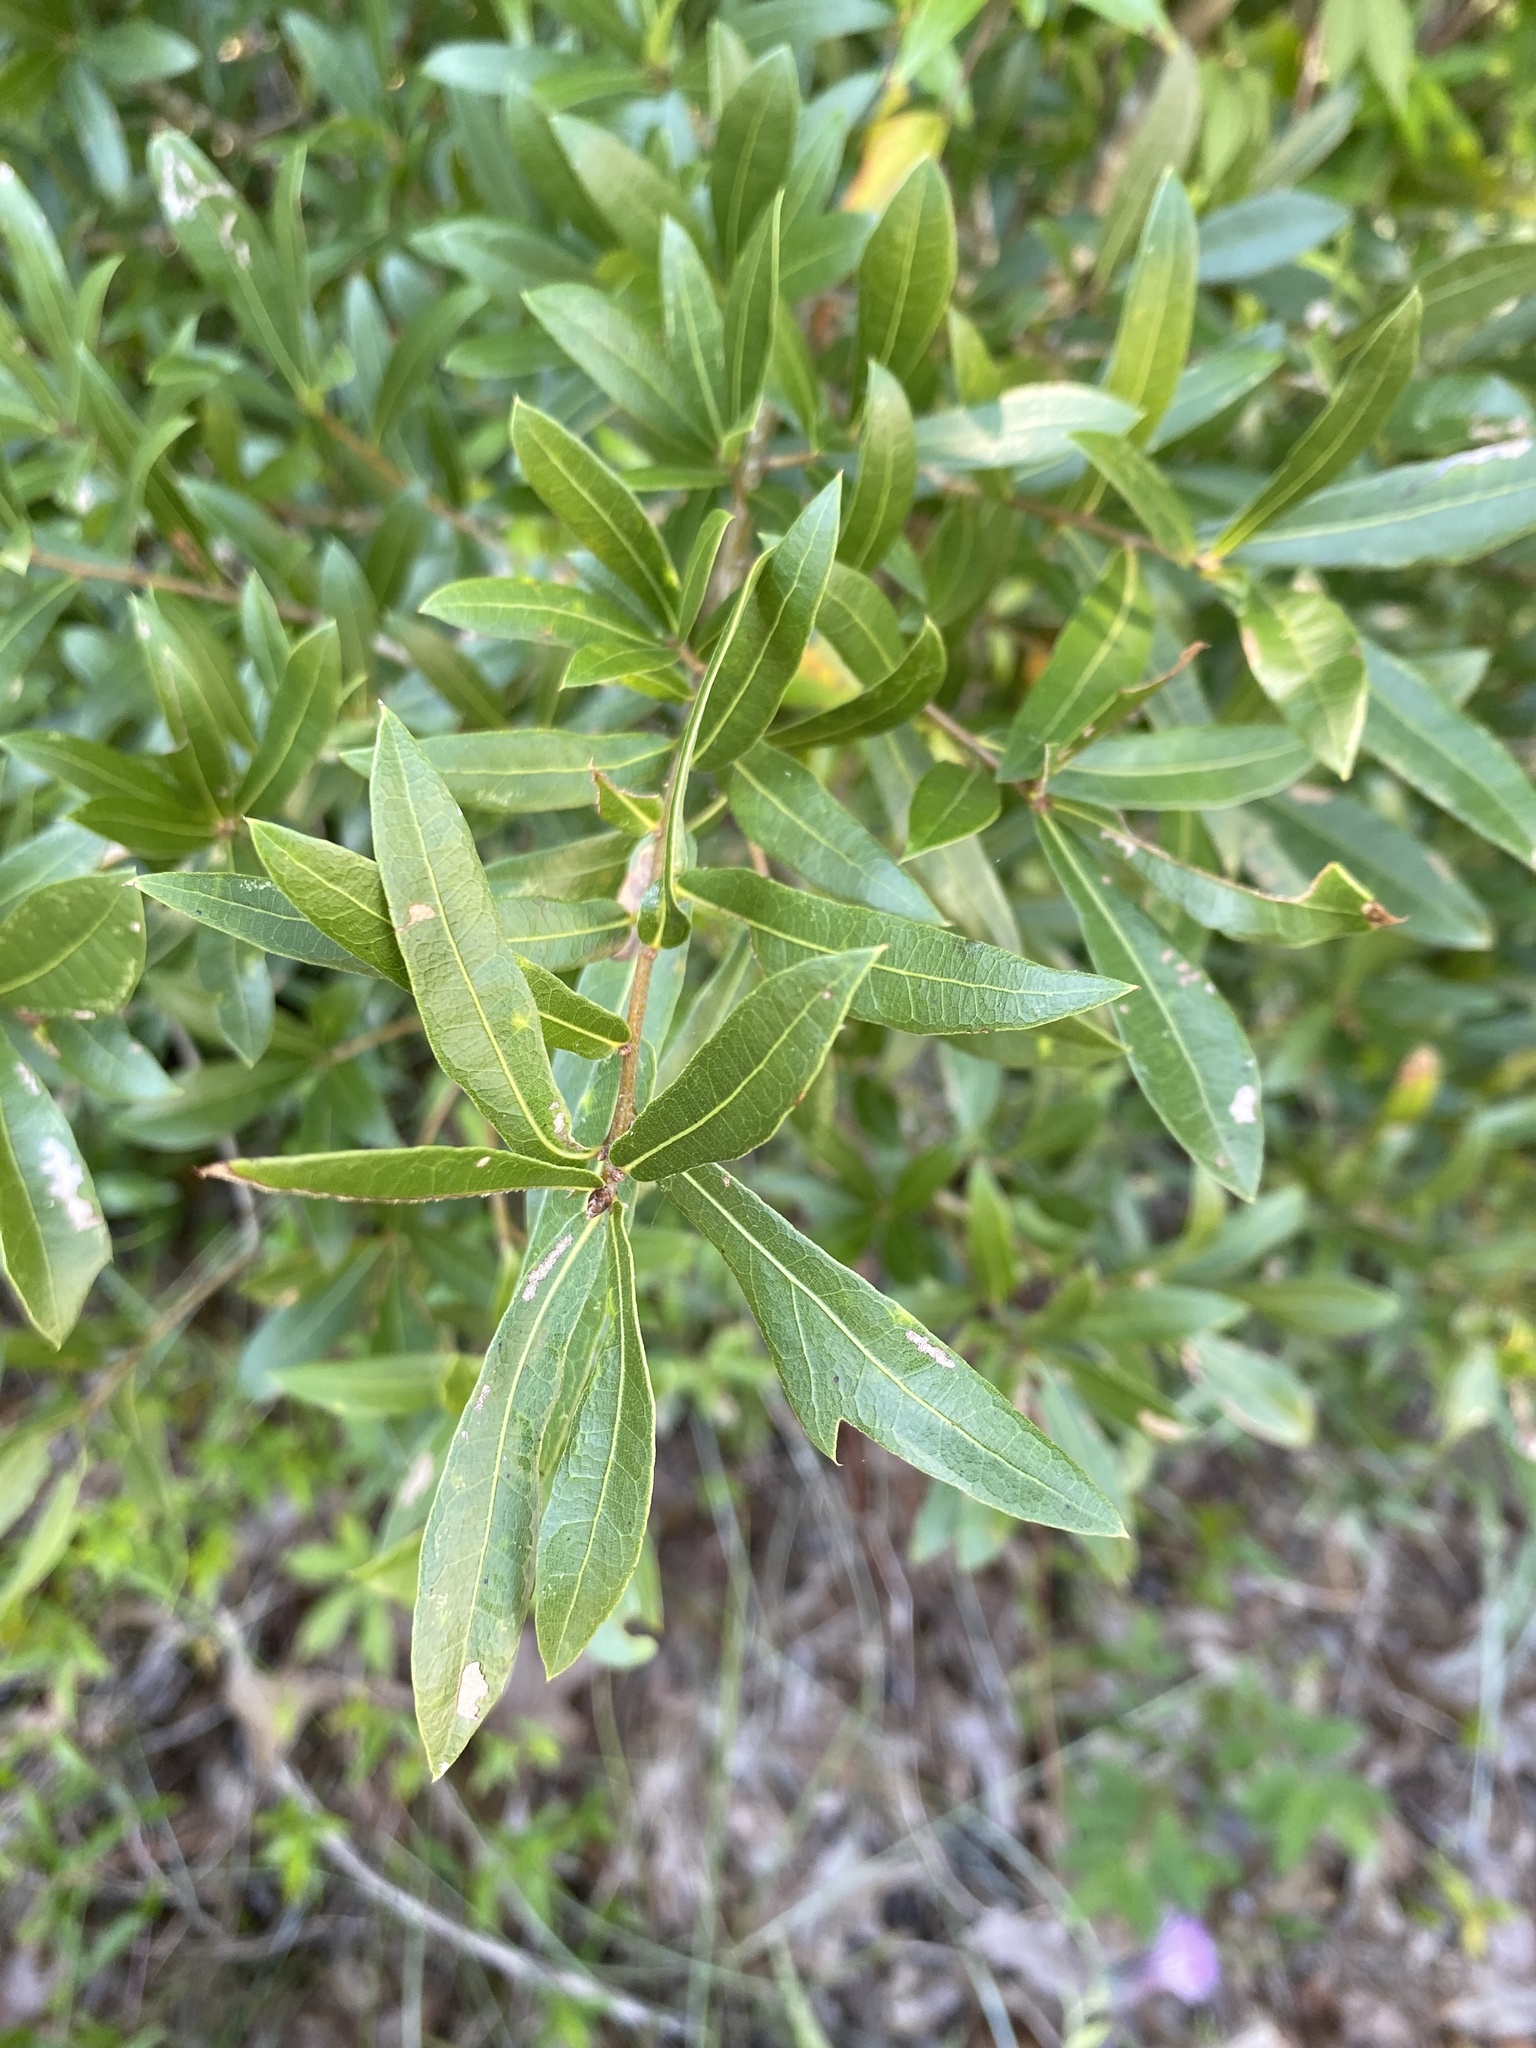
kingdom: Plantae
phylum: Tracheophyta
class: Magnoliopsida
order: Fagales
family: Fagaceae
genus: Quercus
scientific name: Quercus hemisphaerica
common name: Darlington oak
